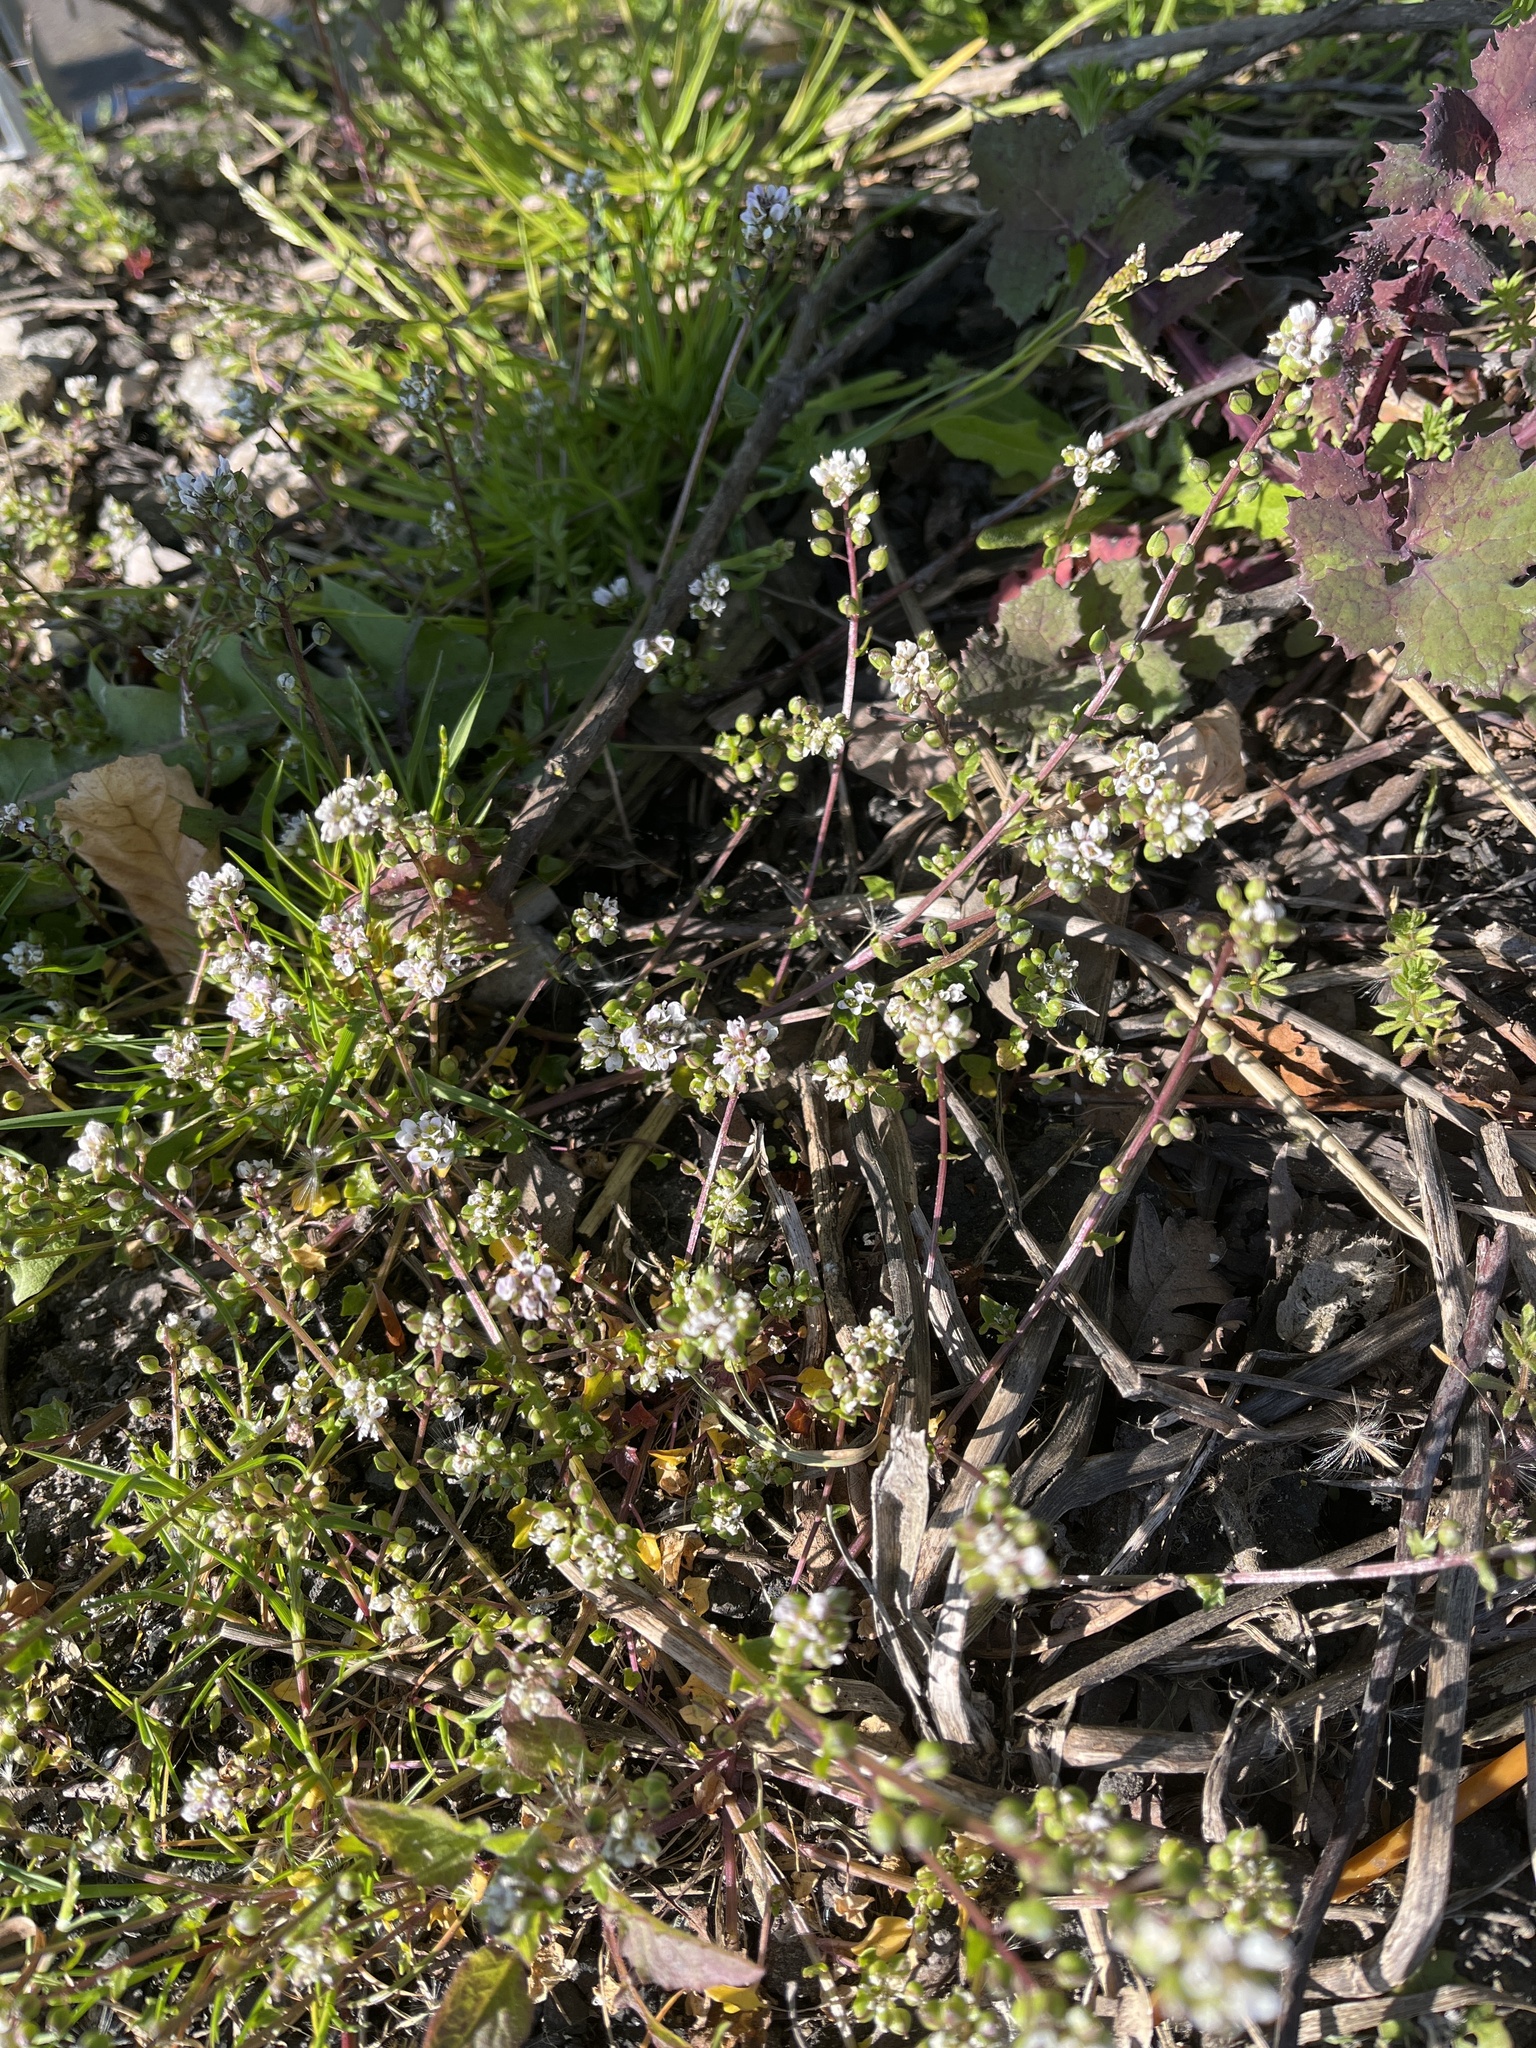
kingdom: Plantae
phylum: Tracheophyta
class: Magnoliopsida
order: Brassicales
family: Brassicaceae
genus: Cochlearia
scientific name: Cochlearia danica
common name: Early scurvygrass
